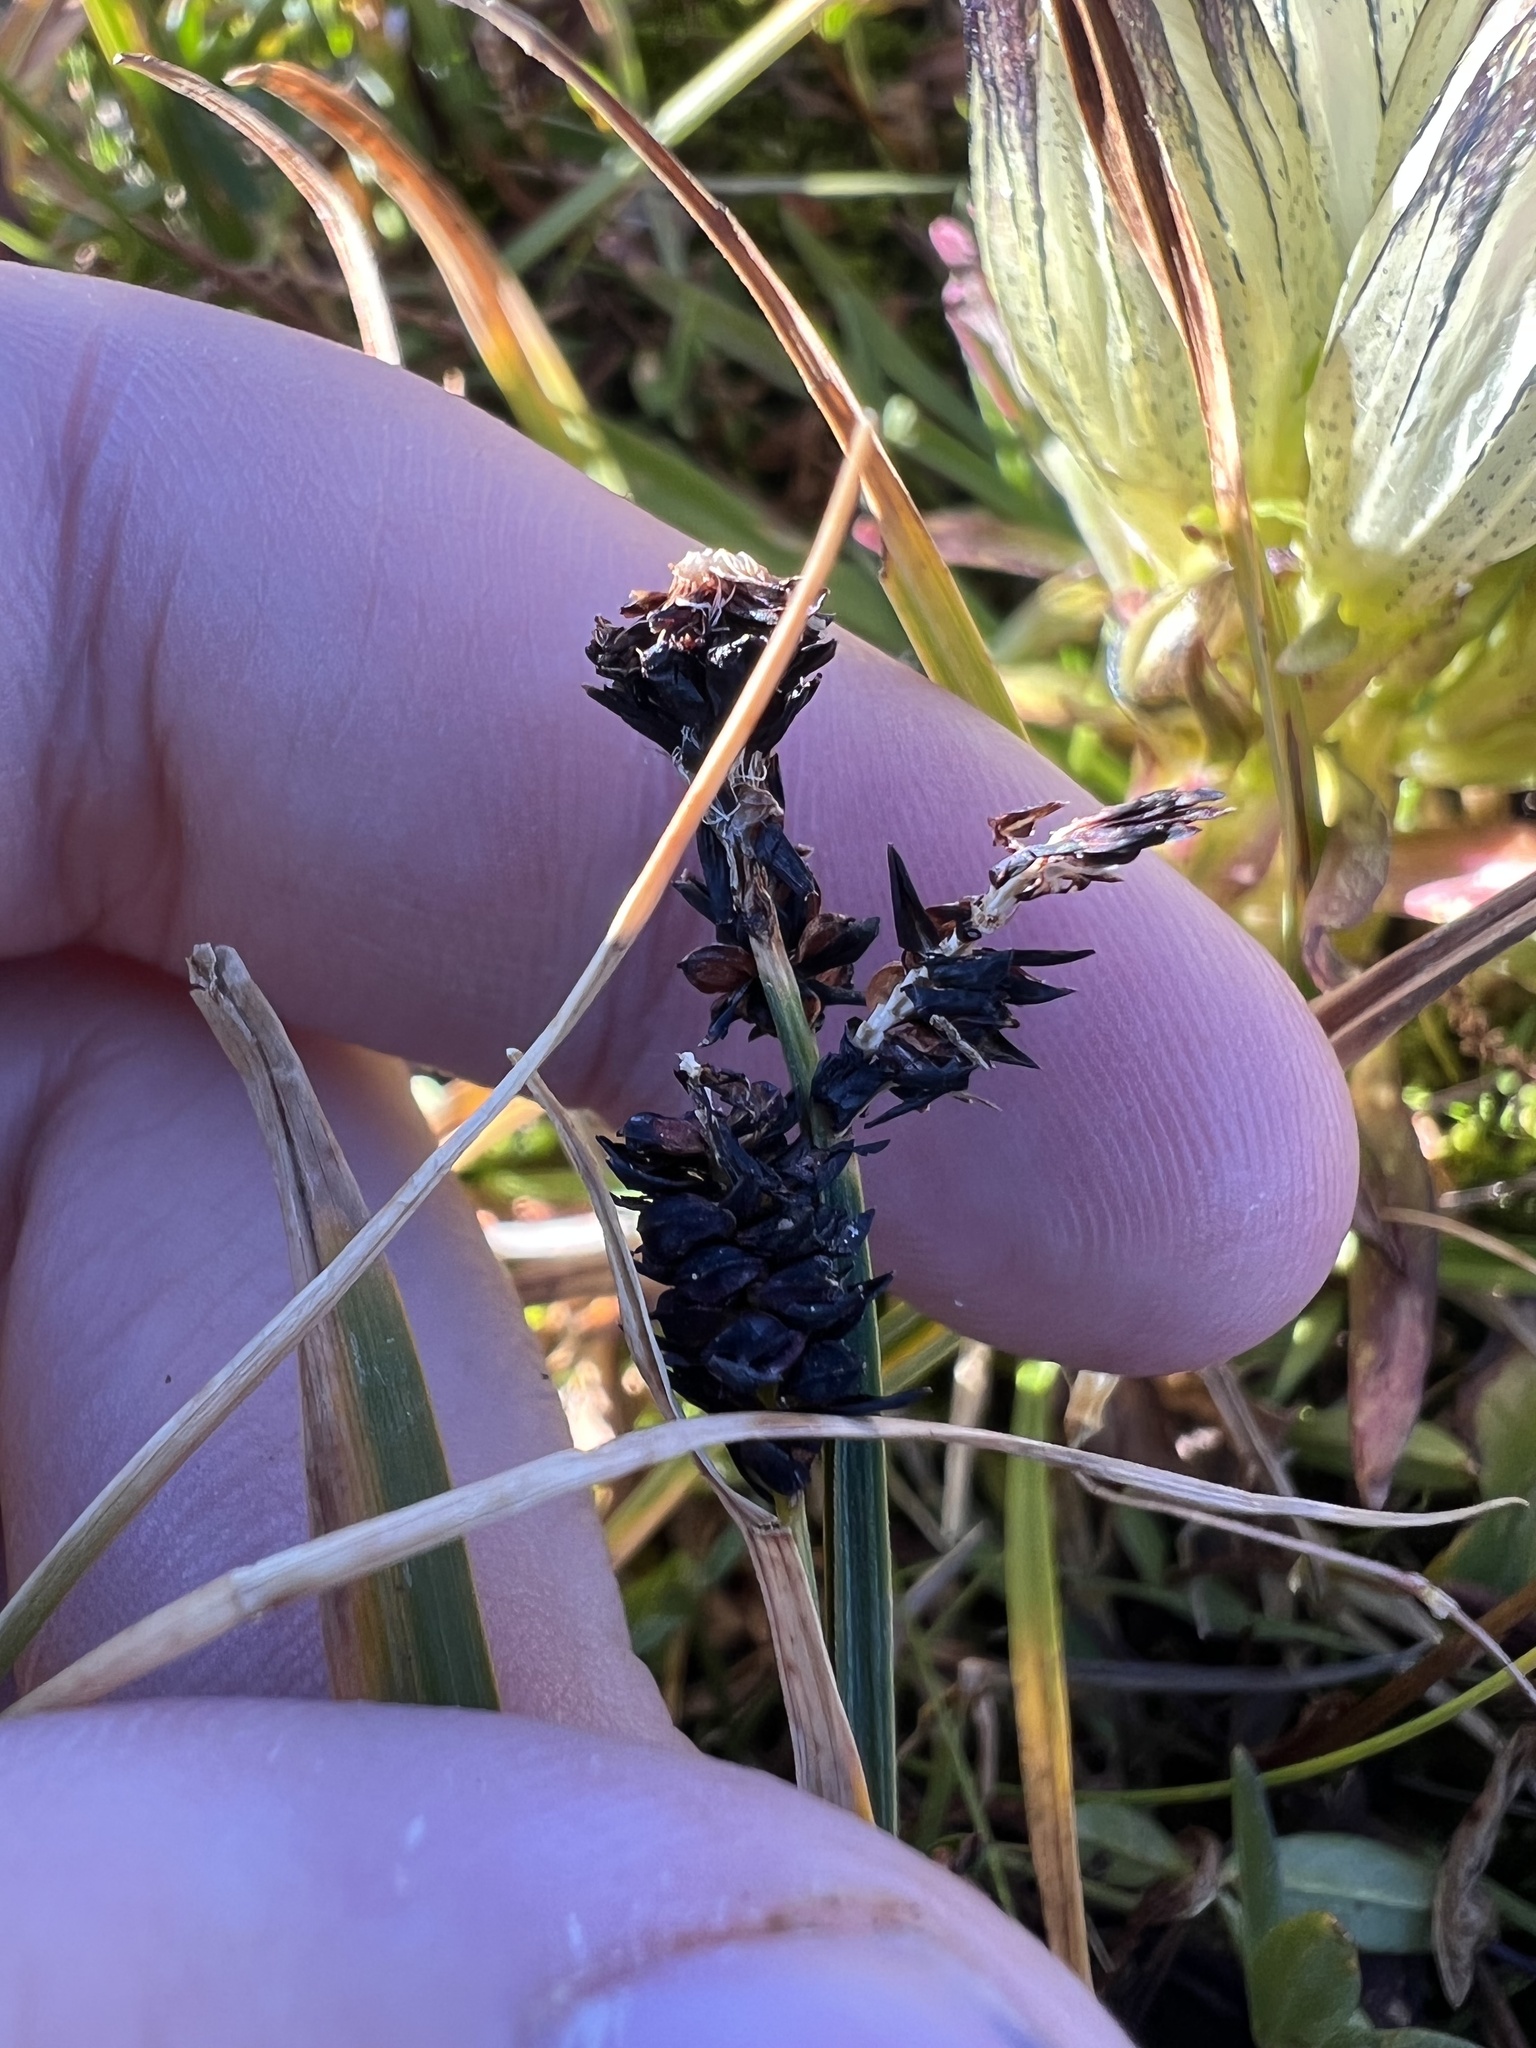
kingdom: Plantae
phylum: Tracheophyta
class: Liliopsida
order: Poales
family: Cyperaceae
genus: Carex
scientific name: Carex scopulorum
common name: Holm's rocky mountain sedge
